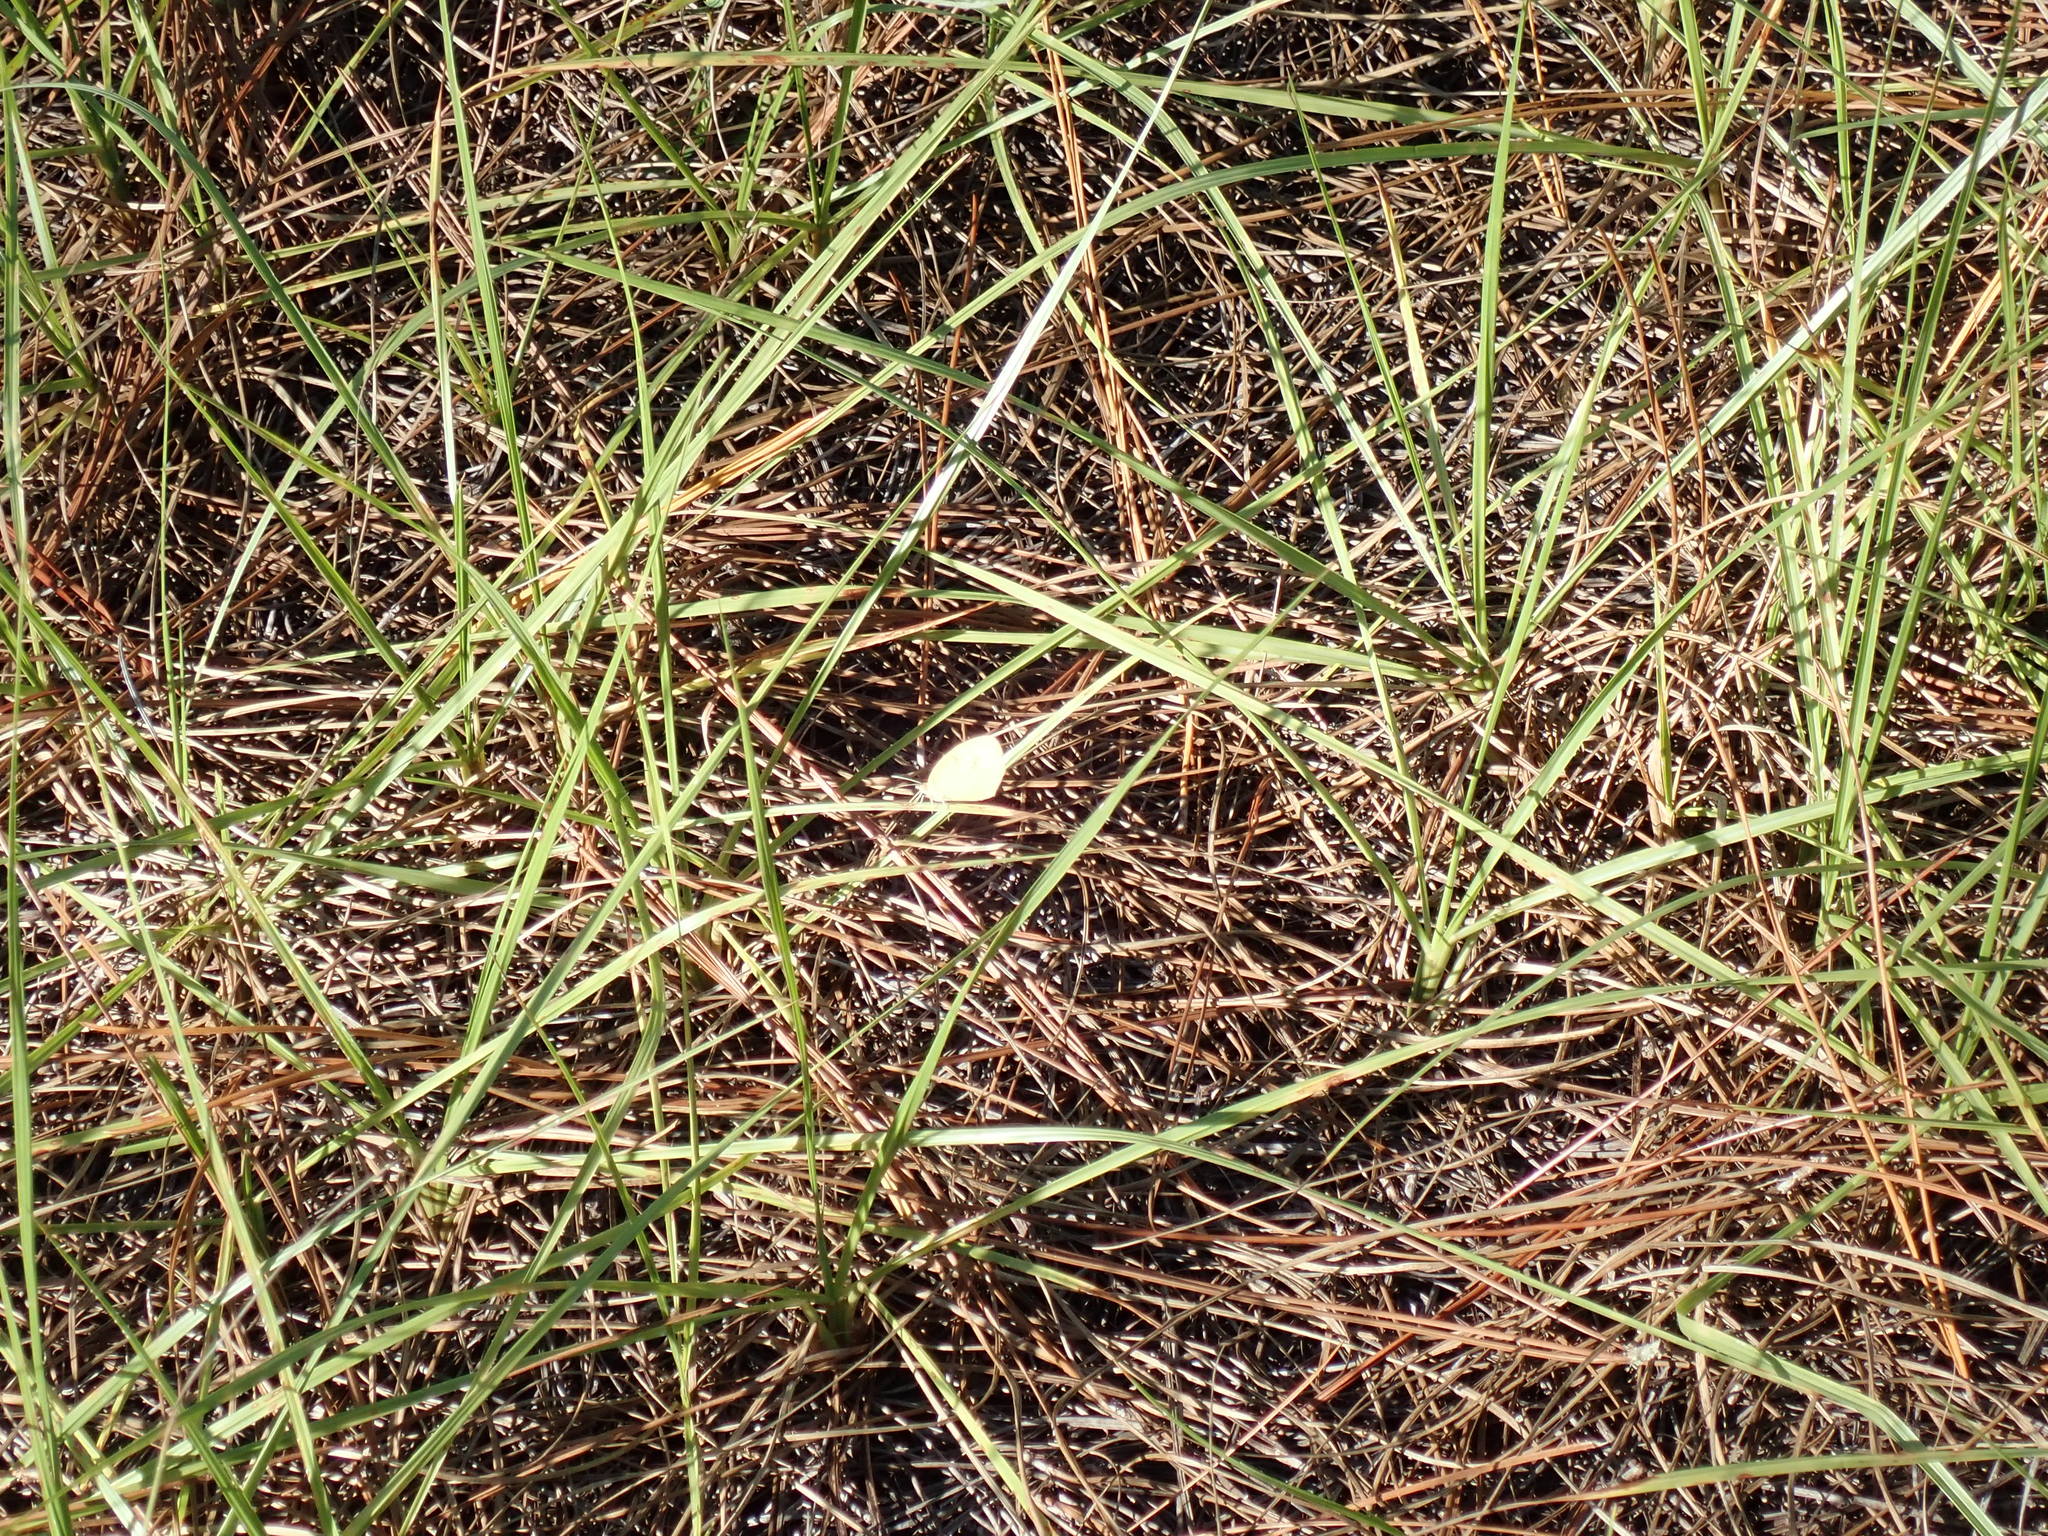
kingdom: Animalia
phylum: Arthropoda
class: Insecta
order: Lepidoptera
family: Pieridae
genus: Eurema
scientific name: Eurema daira
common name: Barred sulphur
